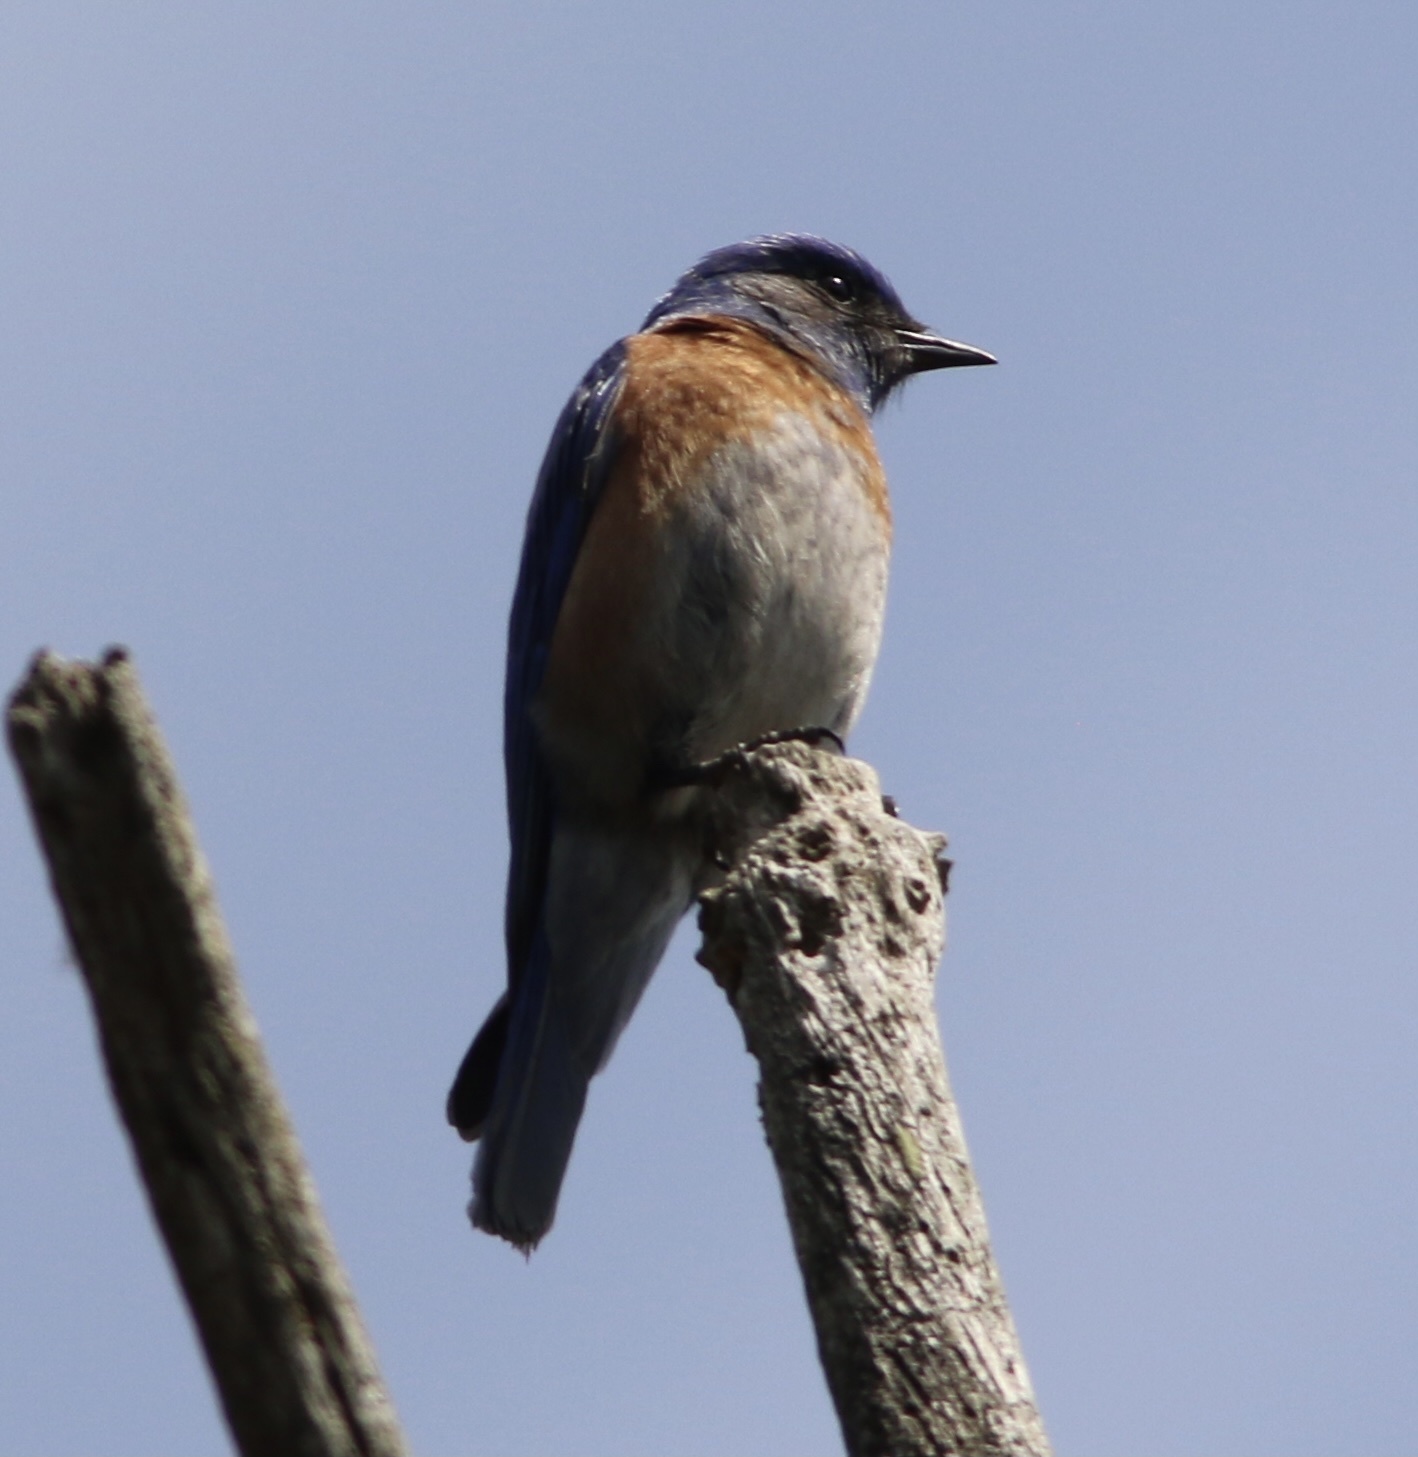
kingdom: Animalia
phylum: Chordata
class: Aves
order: Passeriformes
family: Turdidae
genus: Sialia
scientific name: Sialia mexicana
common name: Western bluebird
